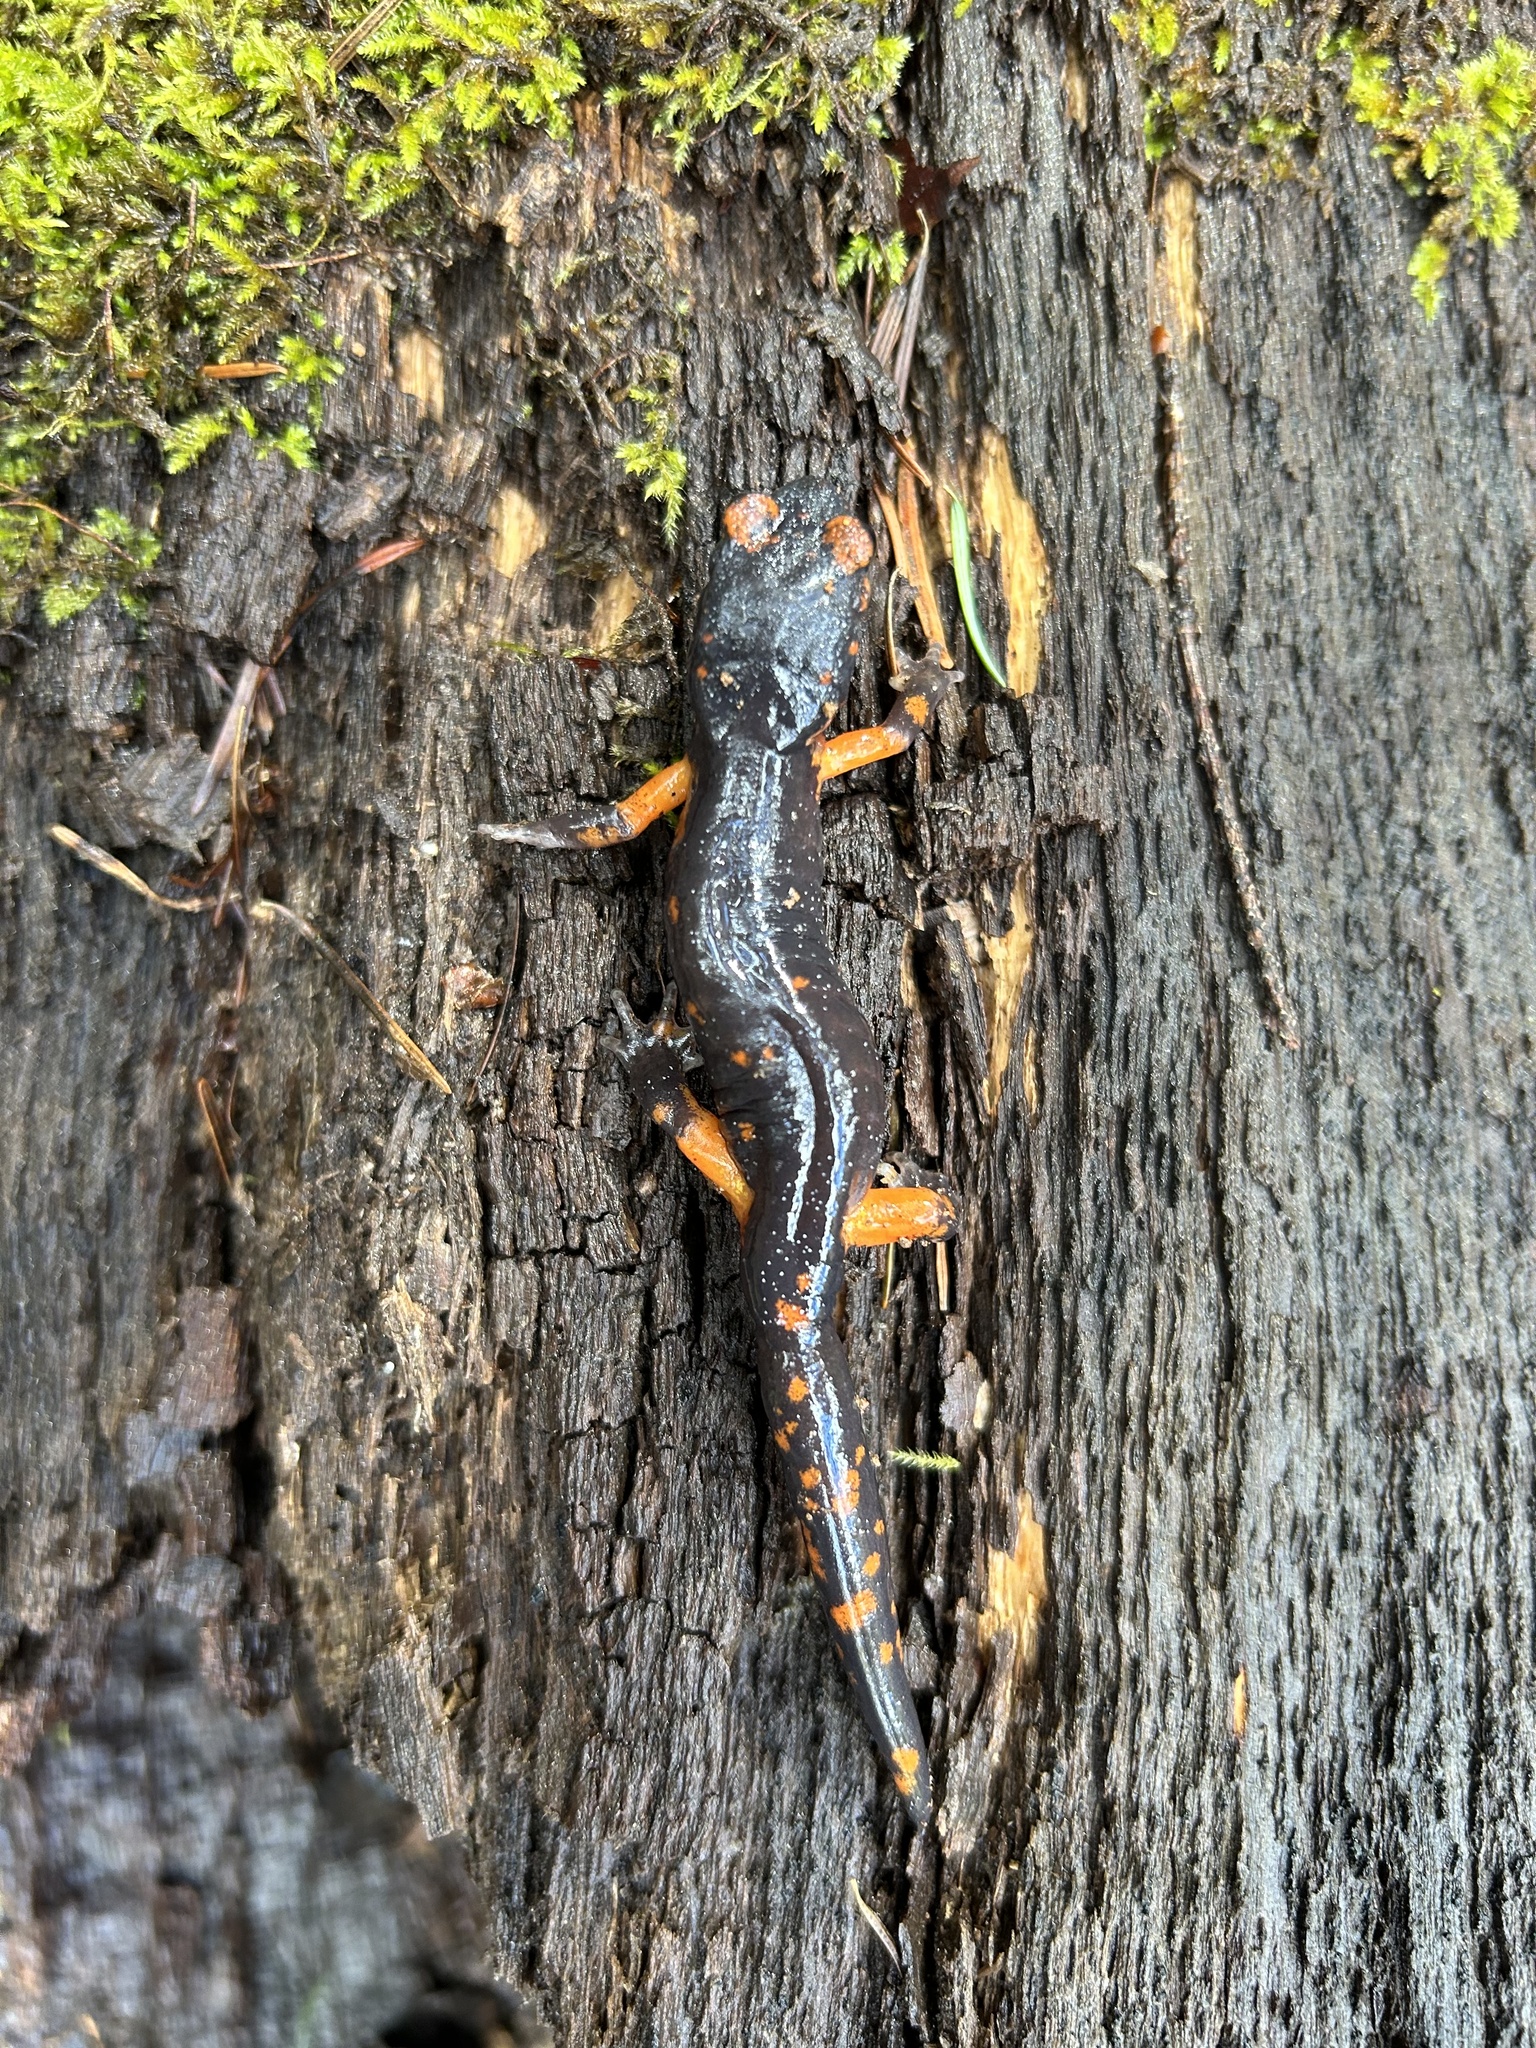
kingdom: Animalia
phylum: Chordata
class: Amphibia
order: Caudata
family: Plethodontidae
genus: Ensatina
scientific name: Ensatina eschscholtzii
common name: Ensatina
